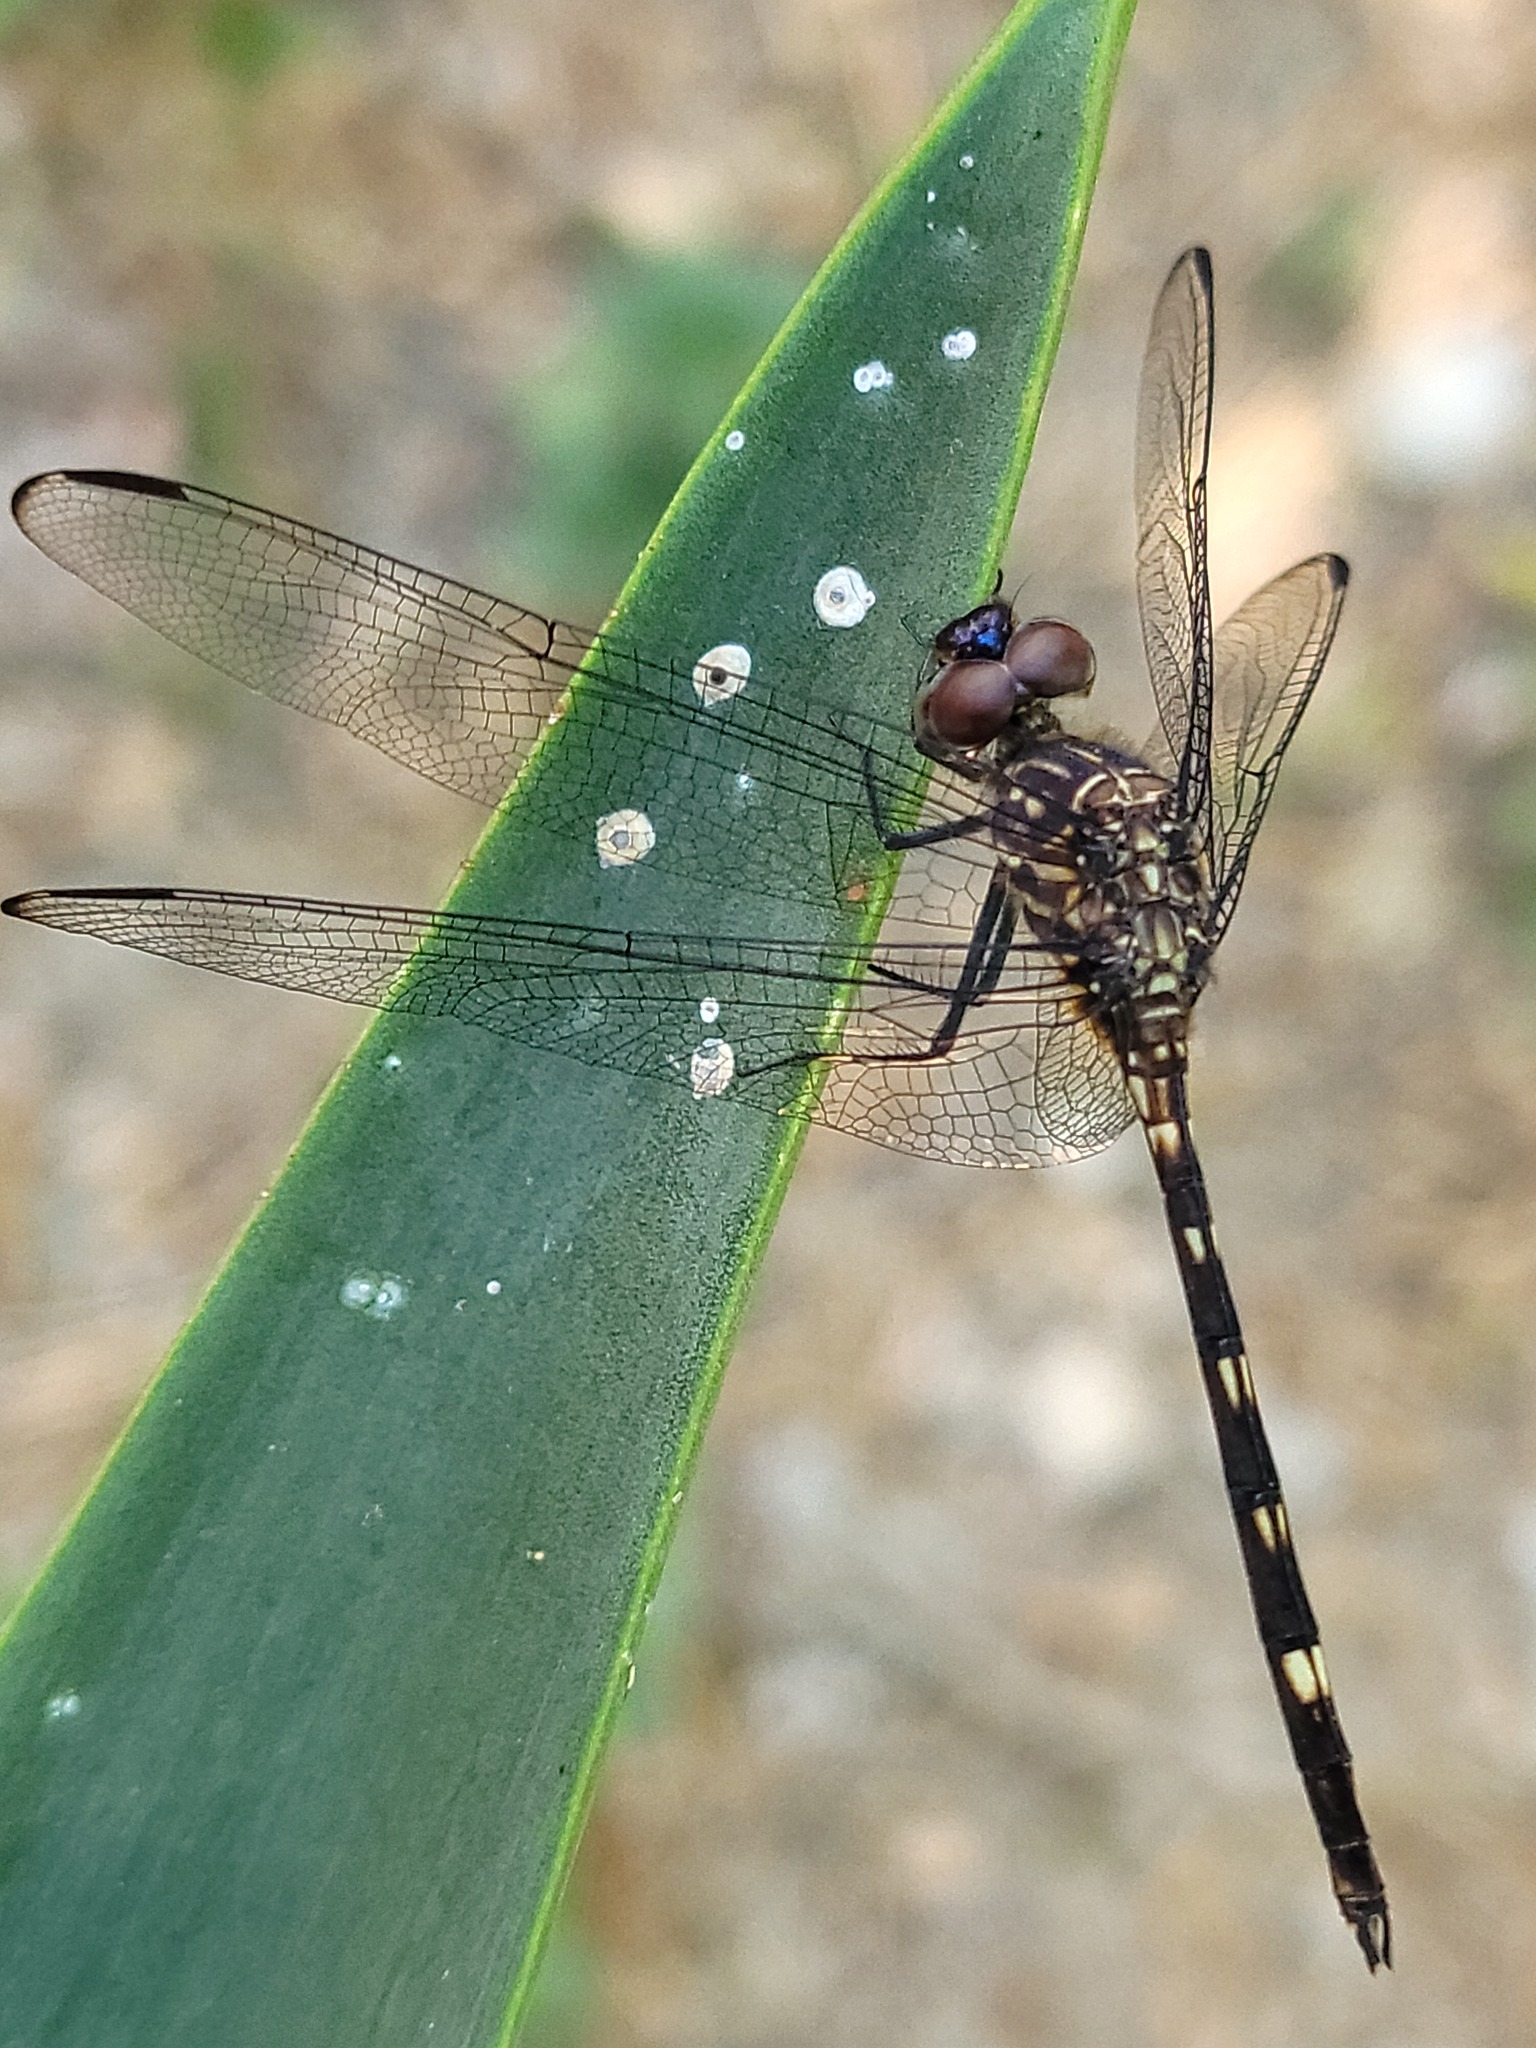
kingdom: Animalia
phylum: Arthropoda
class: Insecta
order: Odonata
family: Libellulidae
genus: Dythemis
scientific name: Dythemis nigrescens
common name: Black setwing
